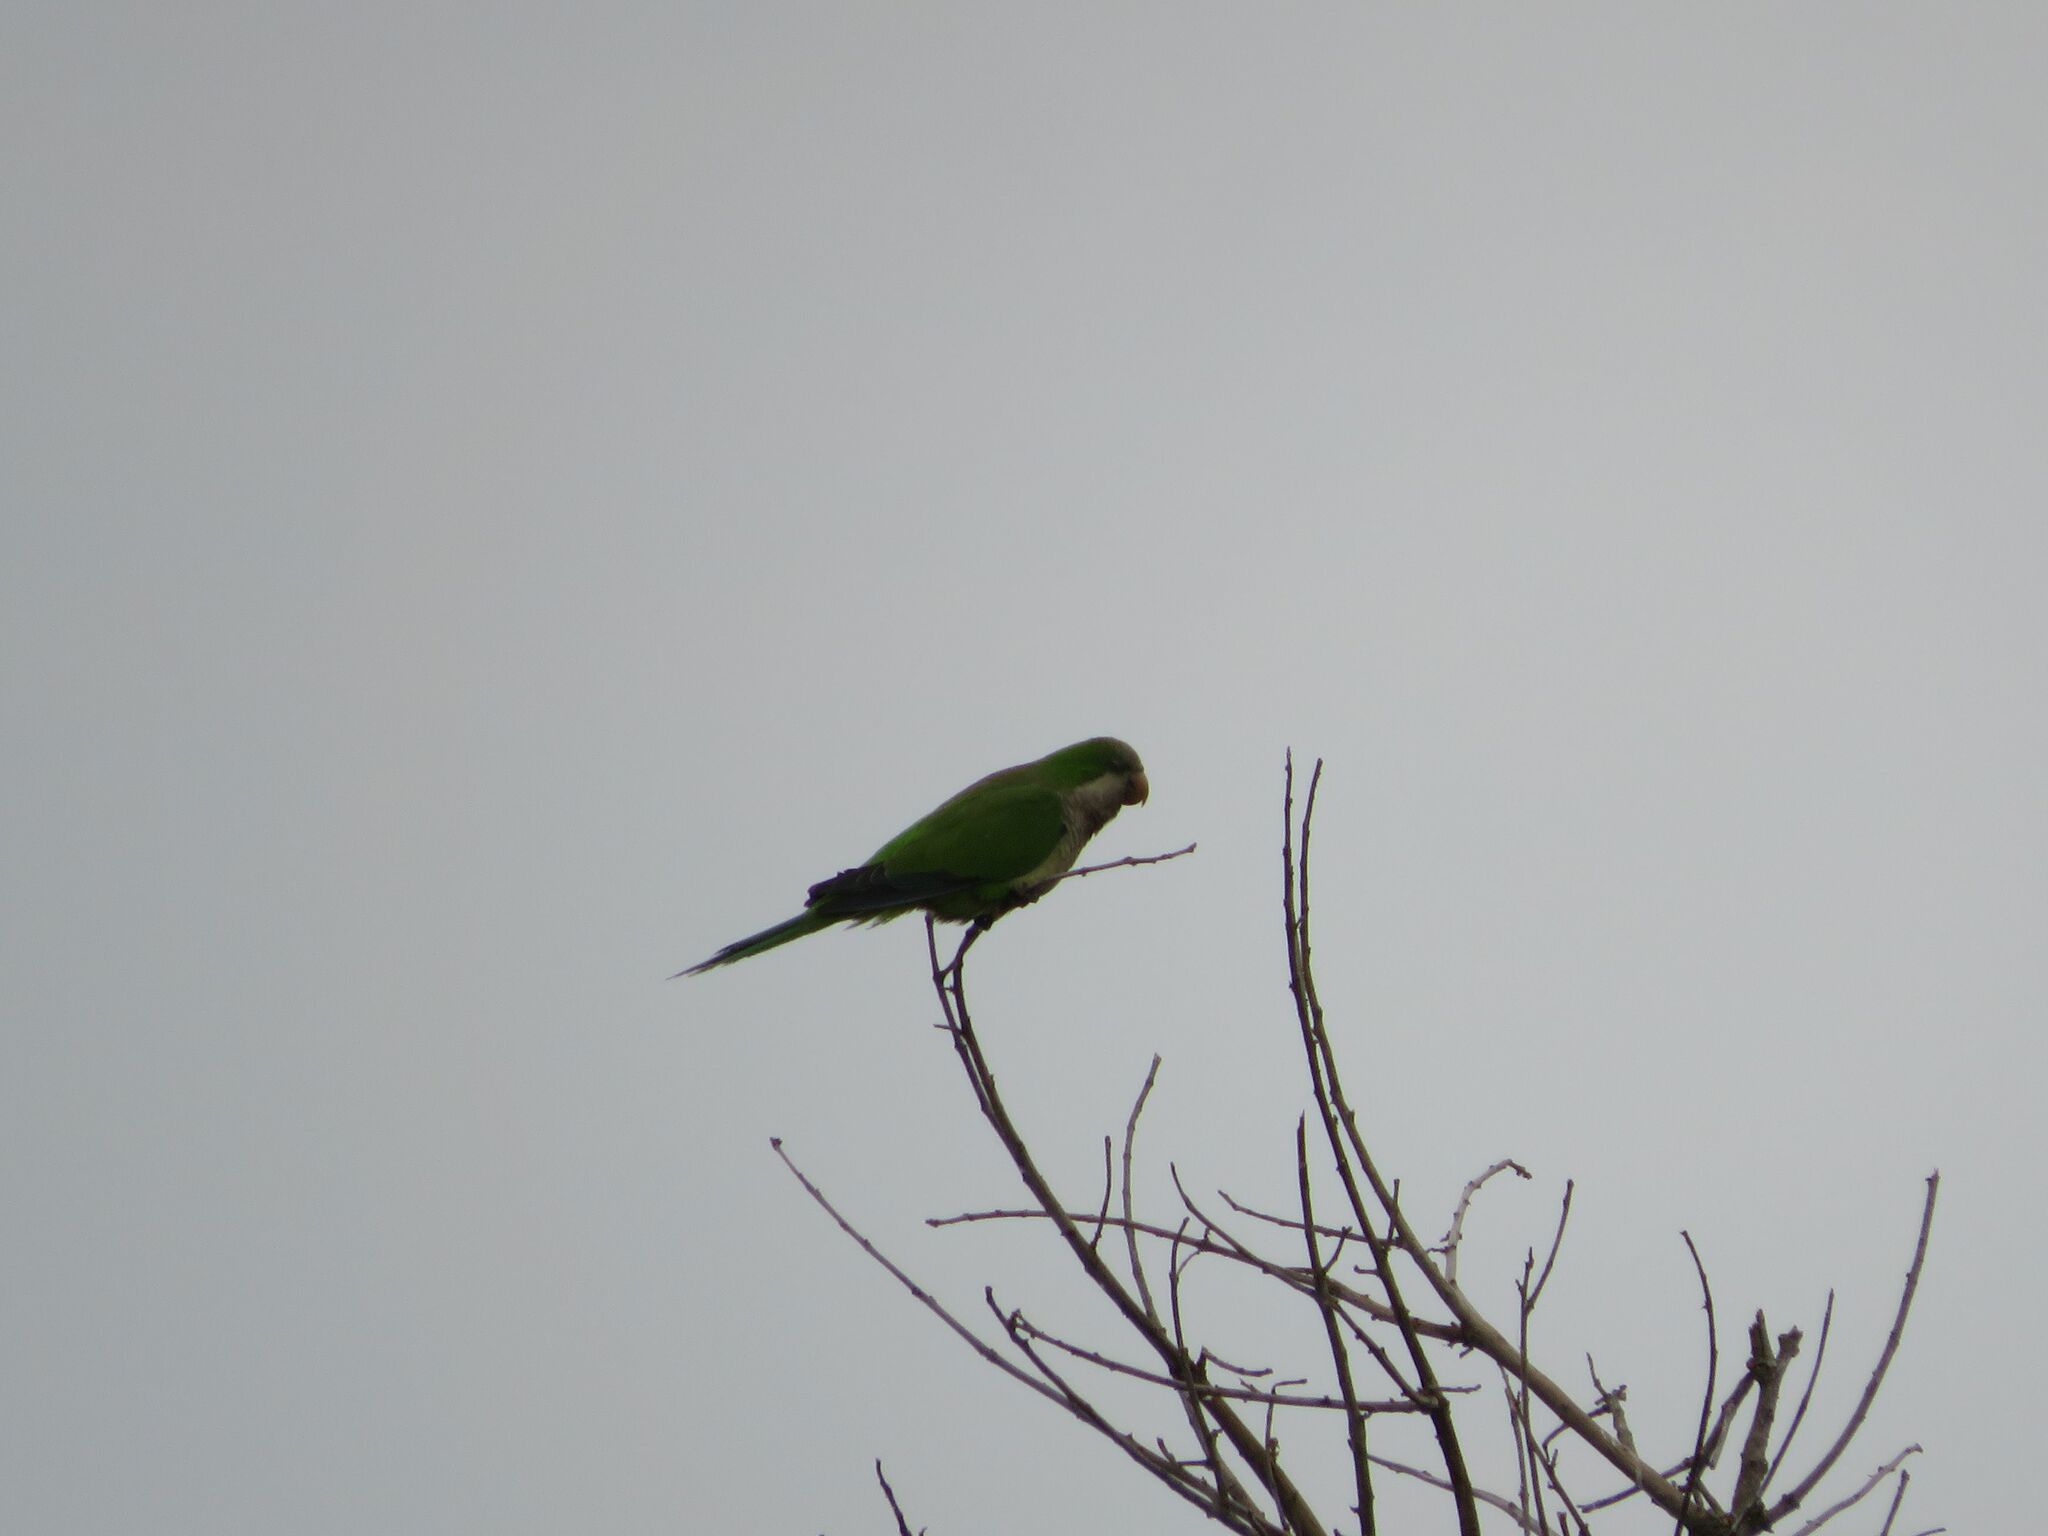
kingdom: Animalia
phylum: Chordata
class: Aves
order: Psittaciformes
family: Psittacidae
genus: Myiopsitta
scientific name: Myiopsitta monachus
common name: Monk parakeet
